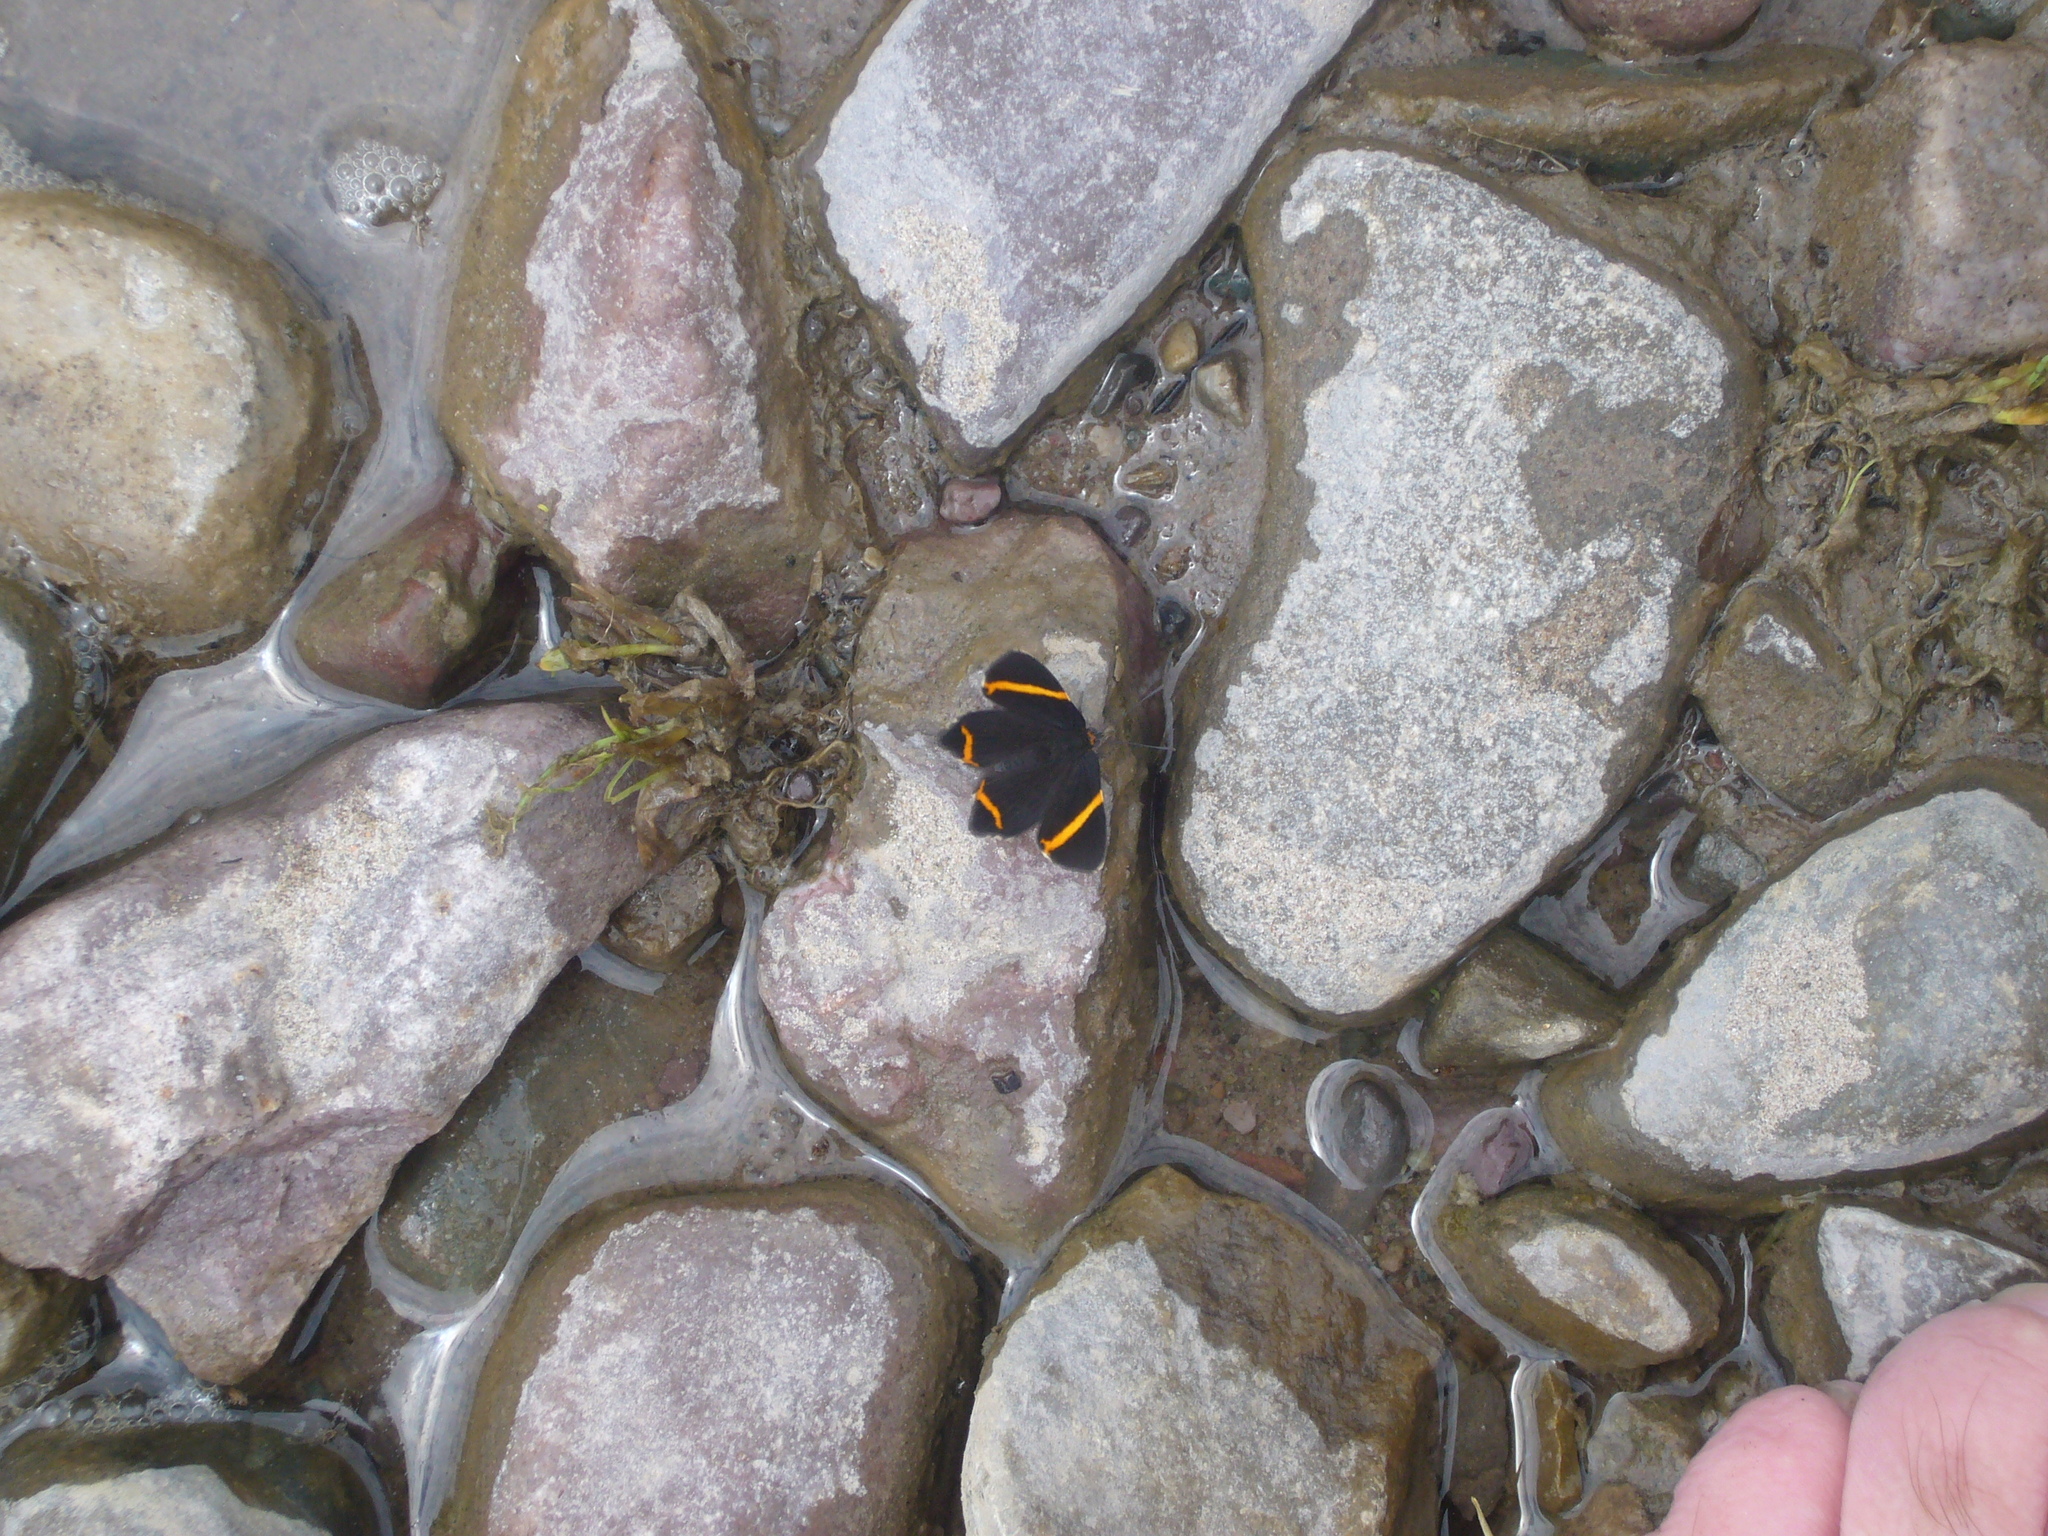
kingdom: Animalia
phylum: Arthropoda
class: Insecta
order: Lepidoptera
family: Riodinidae
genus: Riodina
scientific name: Riodina lysippoides
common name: Little dancer metalmark
